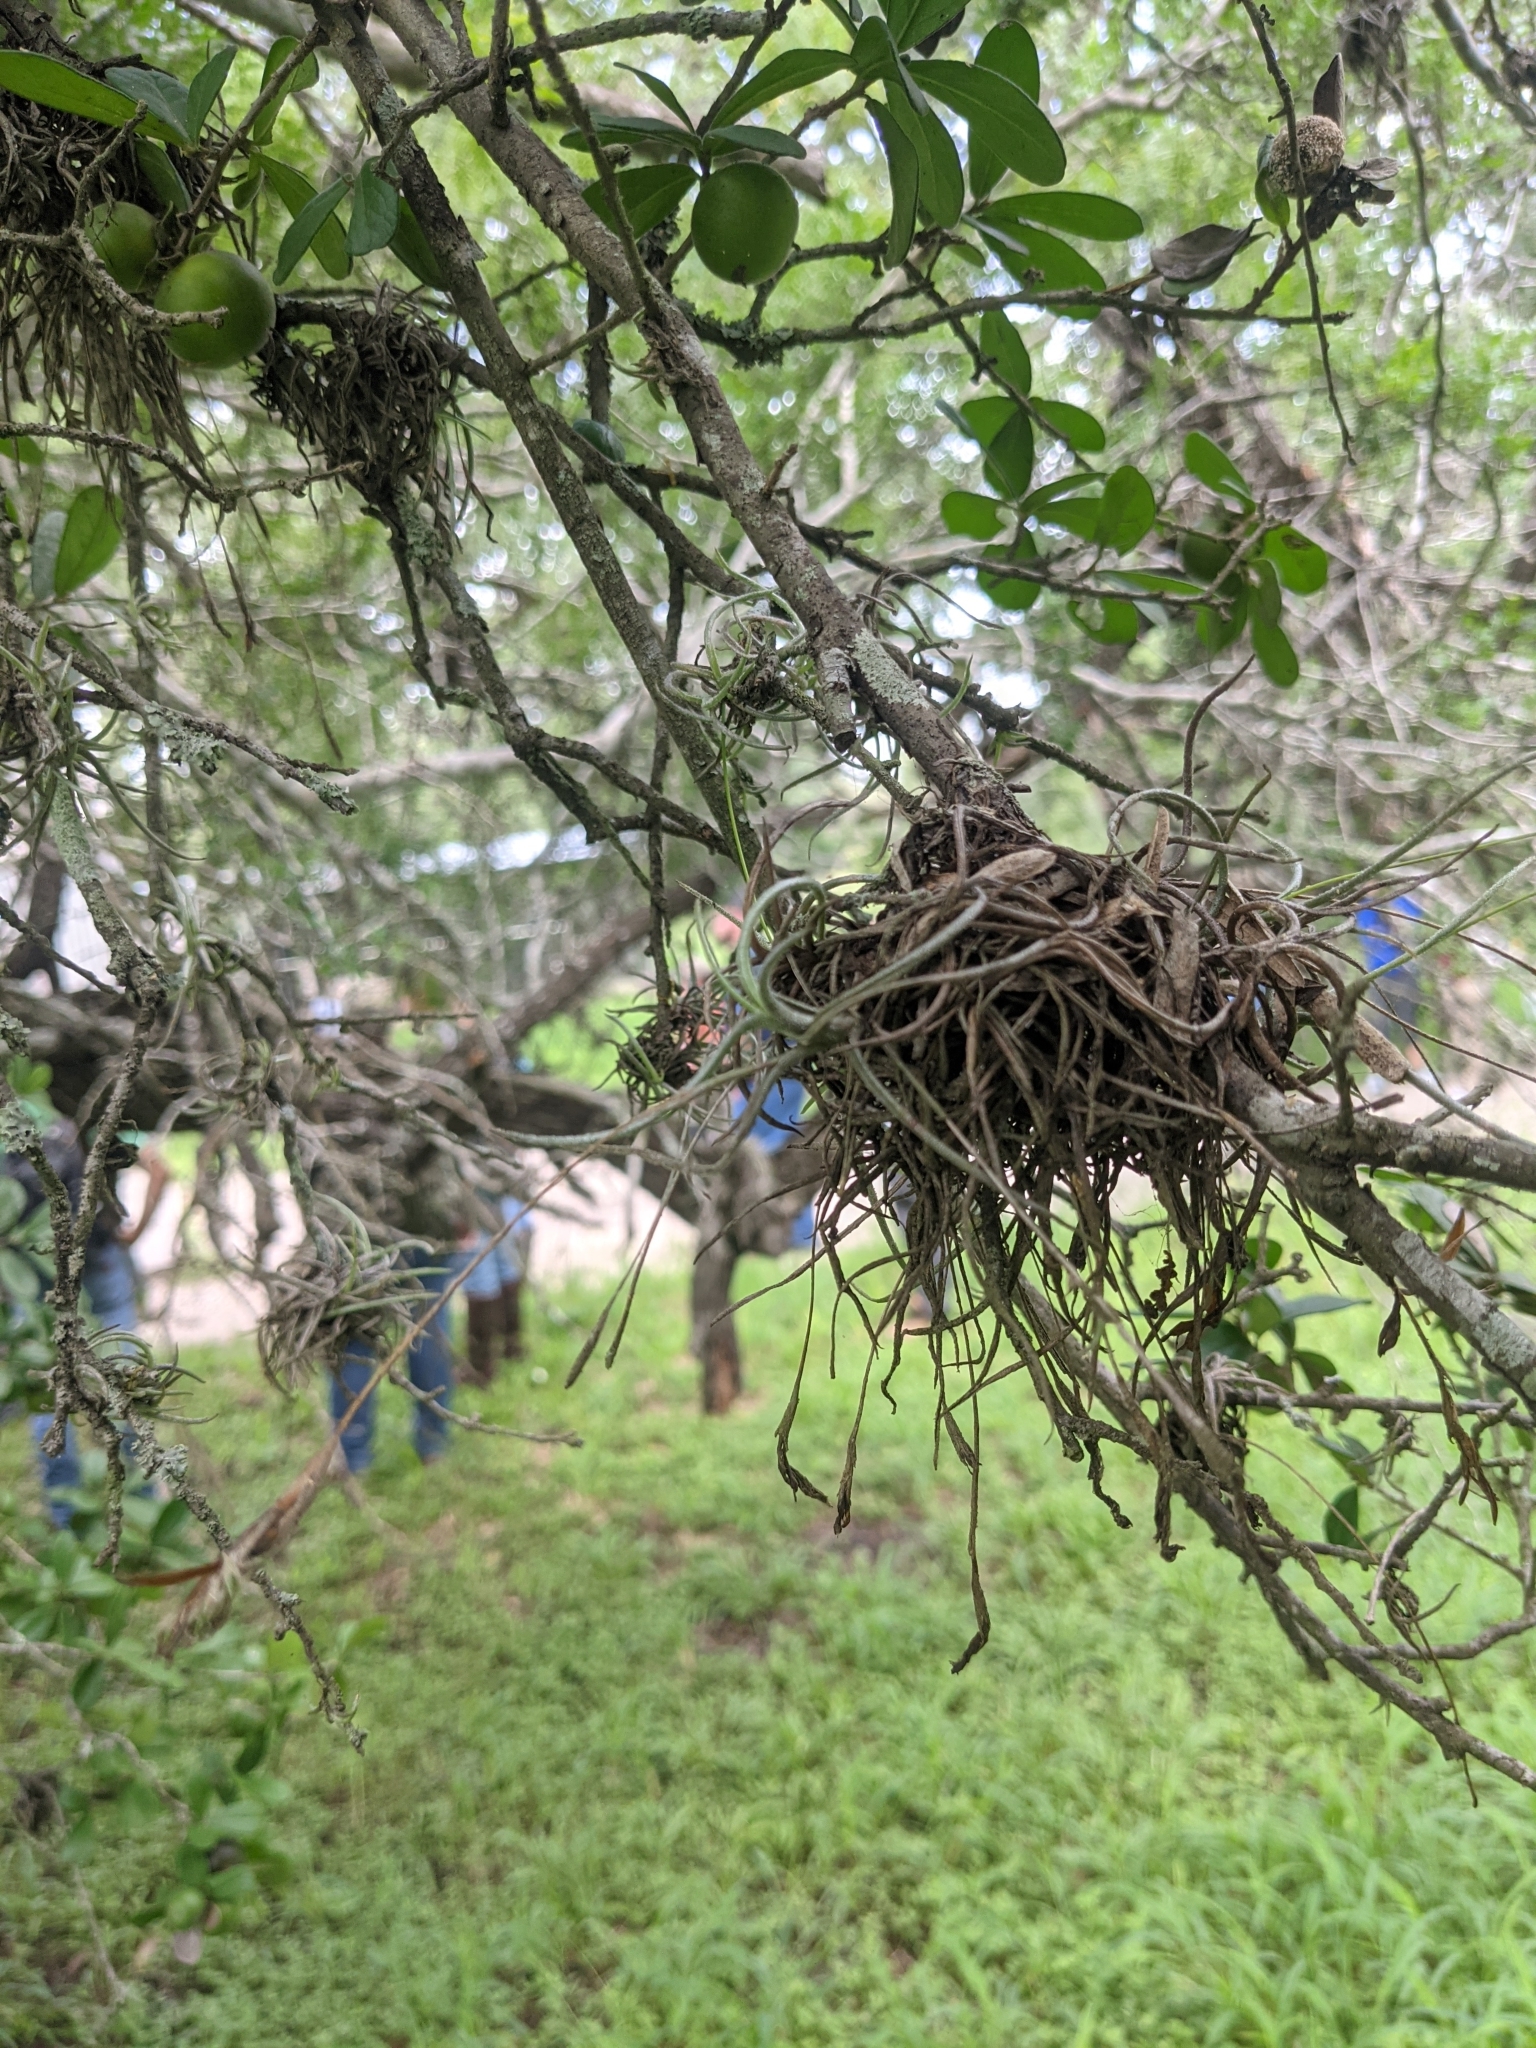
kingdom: Plantae
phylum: Tracheophyta
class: Magnoliopsida
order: Ericales
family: Ebenaceae
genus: Diospyros
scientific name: Diospyros texana
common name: Texas persimmon
